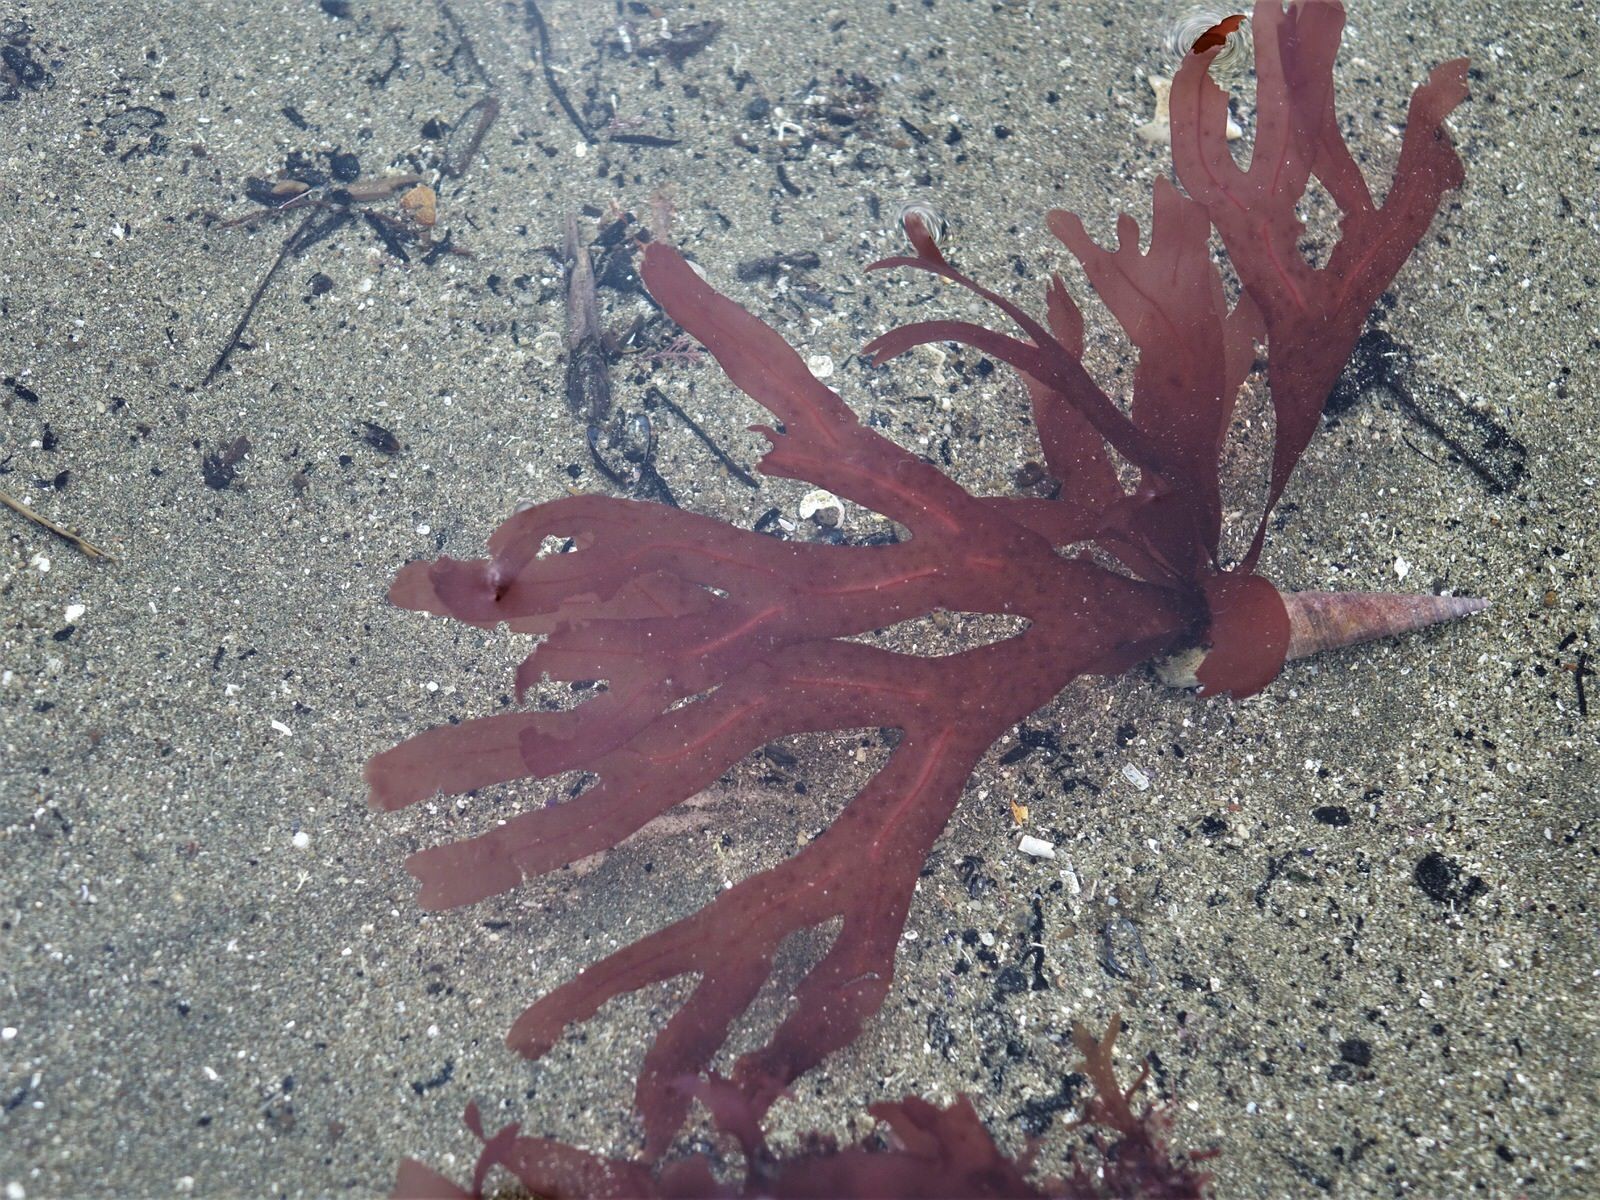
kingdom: Plantae
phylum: Rhodophyta
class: Florideophyceae
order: Gigartinales
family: Phyllophoraceae
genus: Stenogramma
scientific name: Stenogramma interruptum
